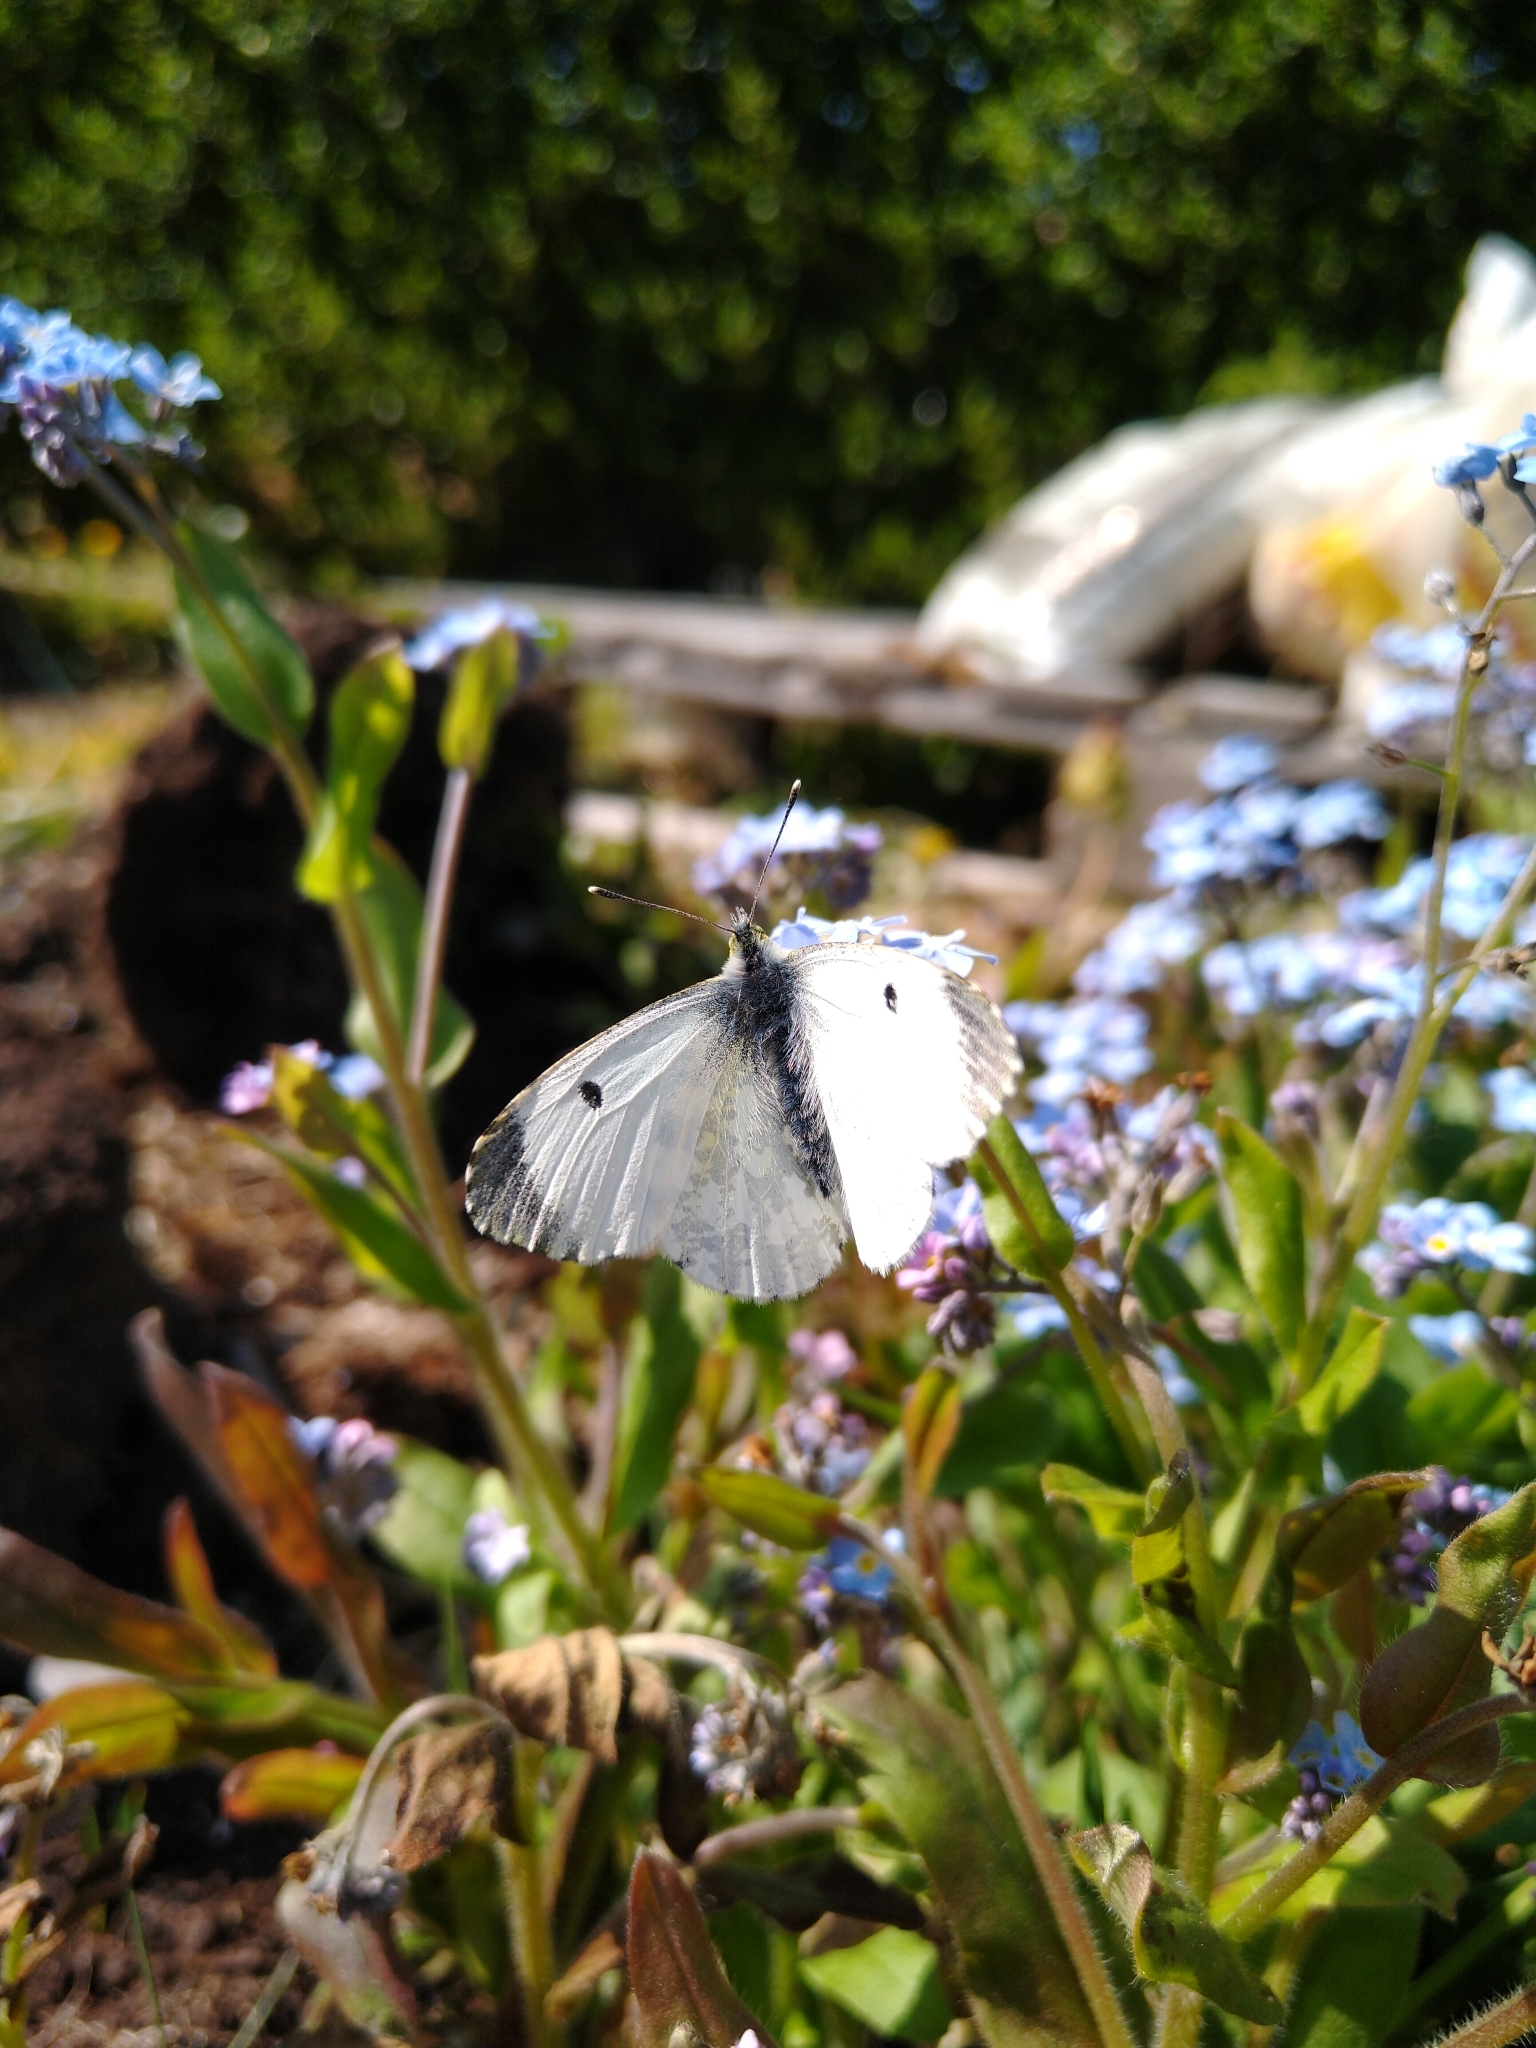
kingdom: Animalia
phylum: Arthropoda
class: Insecta
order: Lepidoptera
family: Pieridae
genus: Anthocharis
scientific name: Anthocharis cardamines
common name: Orange-tip
